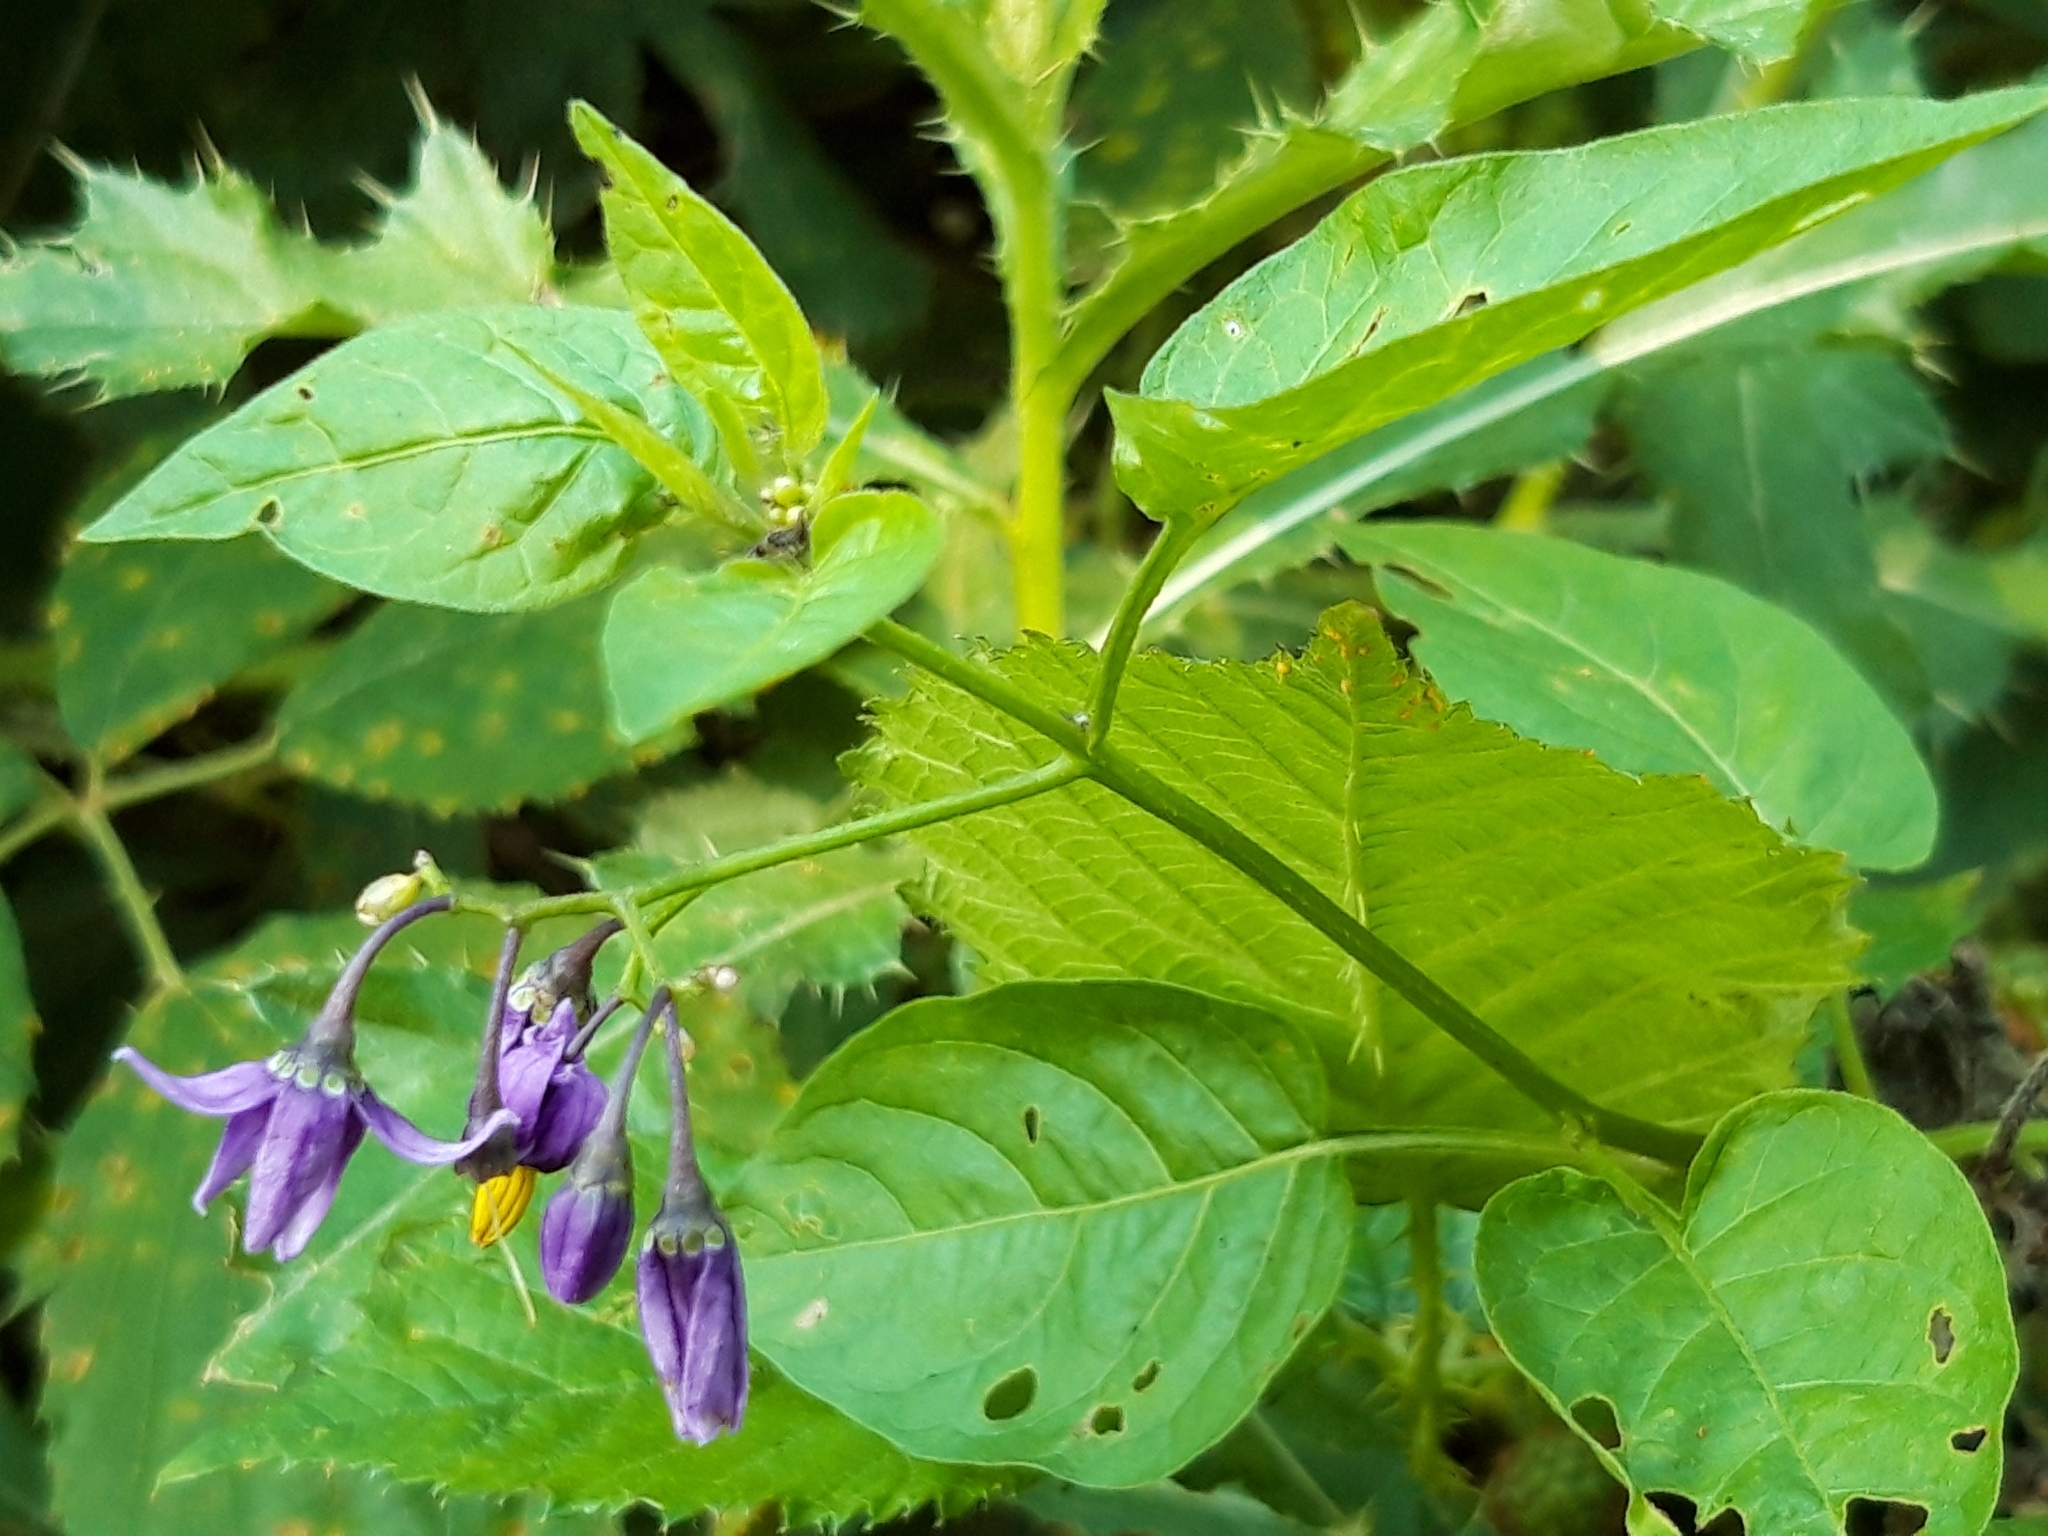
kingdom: Plantae
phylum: Tracheophyta
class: Magnoliopsida
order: Solanales
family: Solanaceae
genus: Solanum
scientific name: Solanum dulcamara
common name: Climbing nightshade
